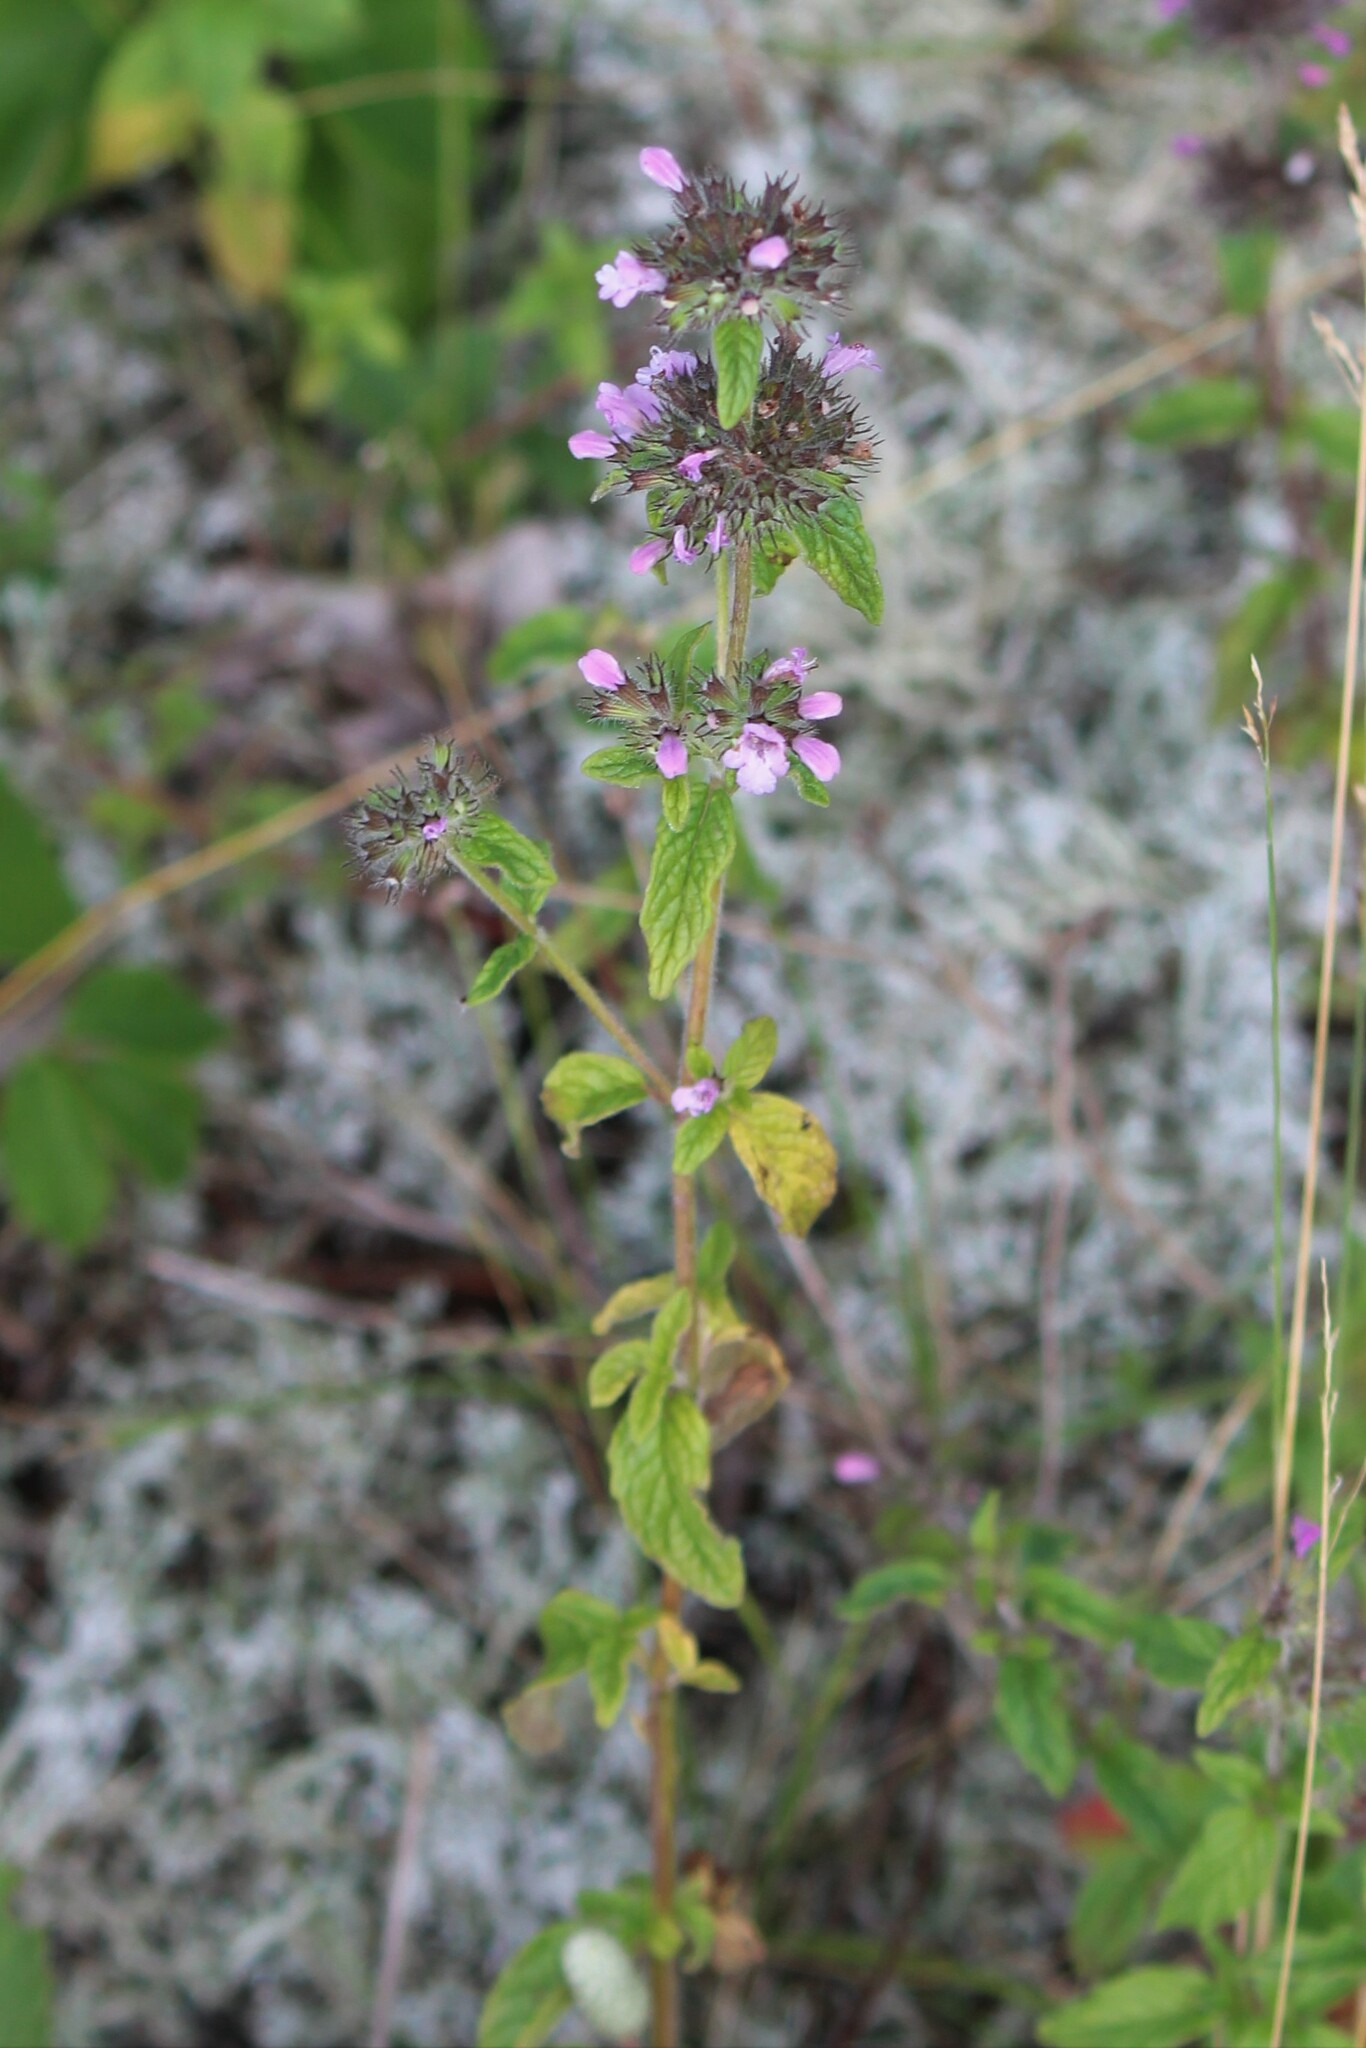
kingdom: Plantae
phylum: Tracheophyta
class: Magnoliopsida
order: Lamiales
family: Lamiaceae
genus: Clinopodium
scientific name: Clinopodium vulgare
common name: Wild basil
